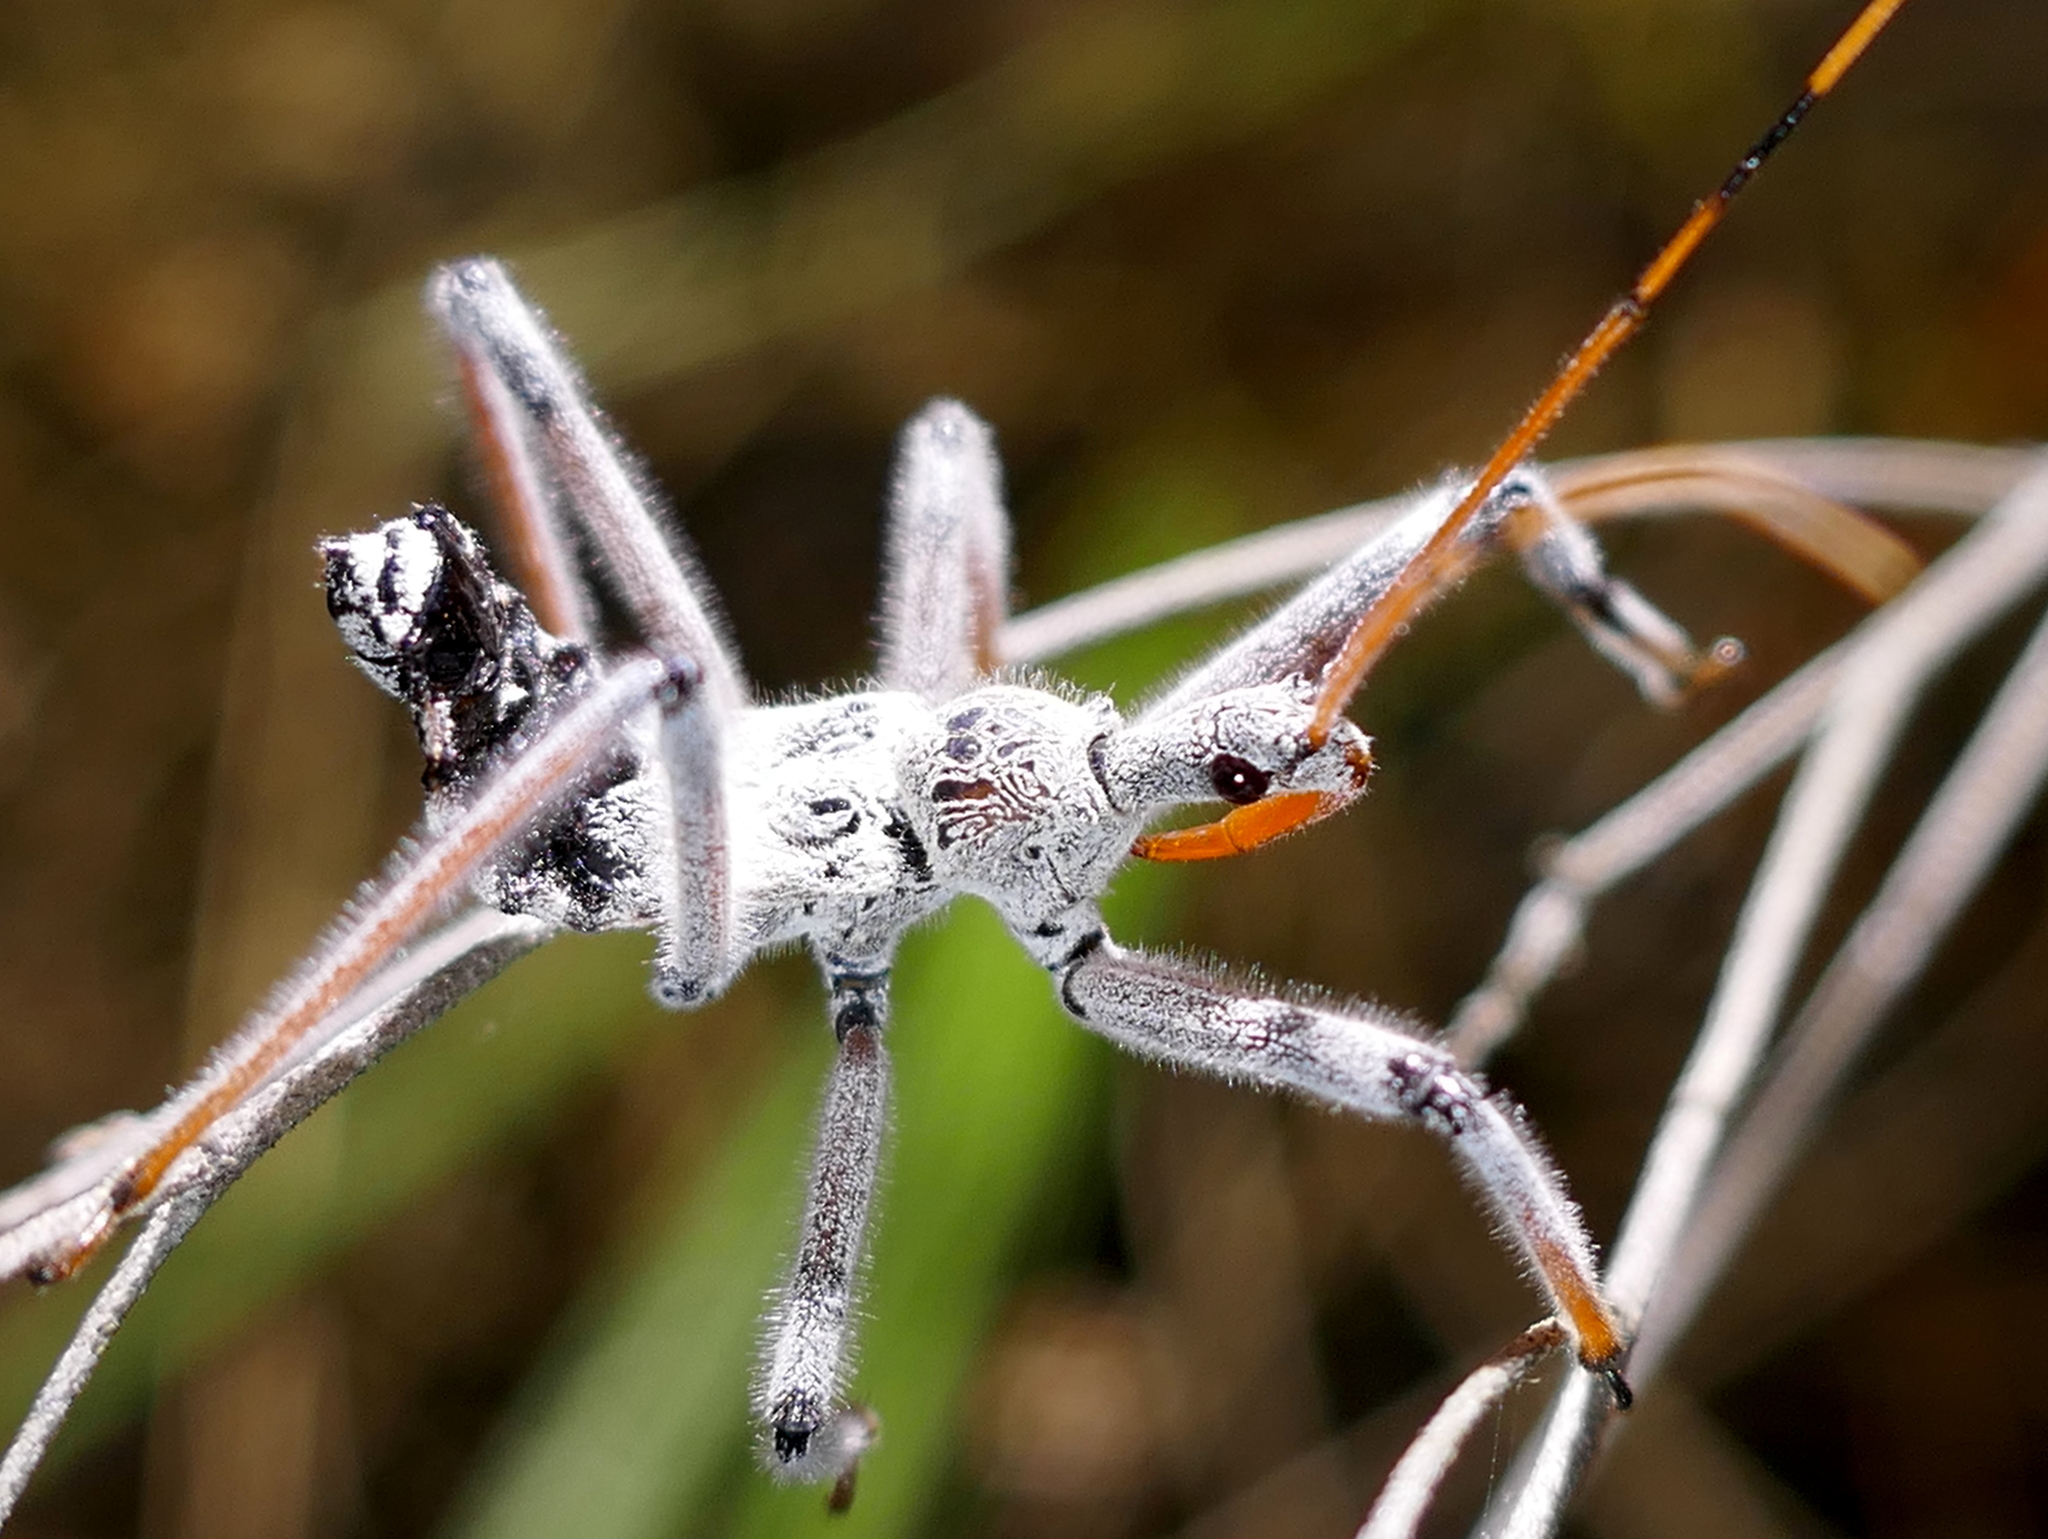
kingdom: Animalia
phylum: Arthropoda
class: Insecta
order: Hemiptera
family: Reduviidae
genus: Arilus
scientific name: Arilus cristatus
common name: North american wheel bug
